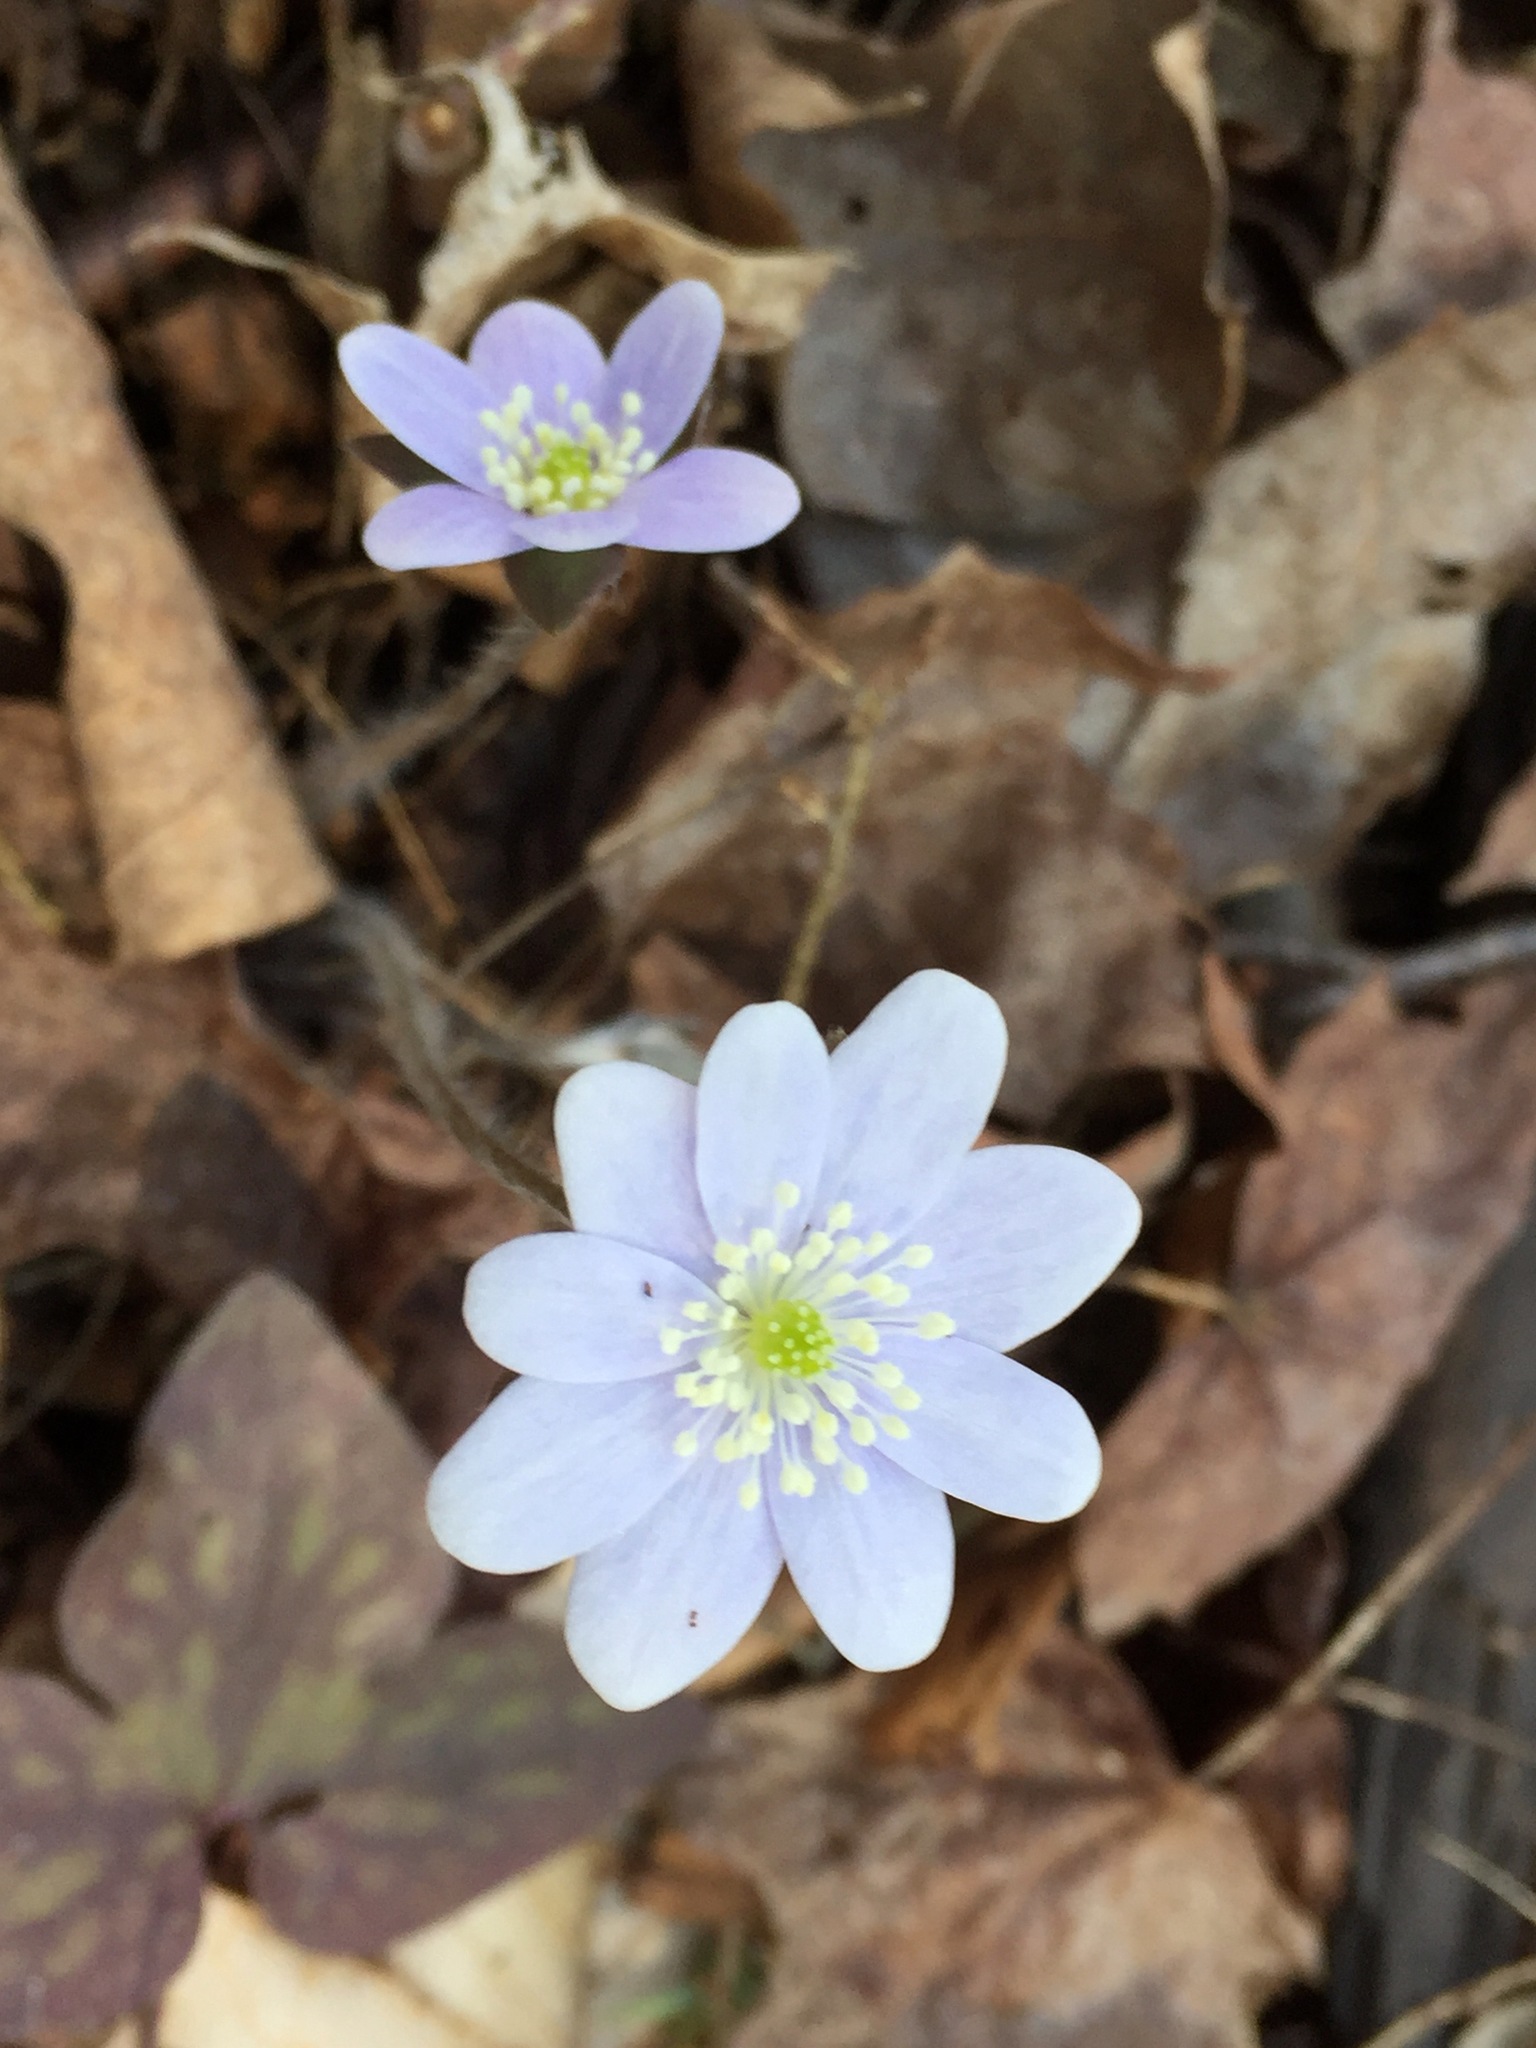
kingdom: Plantae
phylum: Tracheophyta
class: Magnoliopsida
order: Ranunculales
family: Ranunculaceae
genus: Hepatica
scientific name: Hepatica acutiloba
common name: Sharp-lobed hepatica
